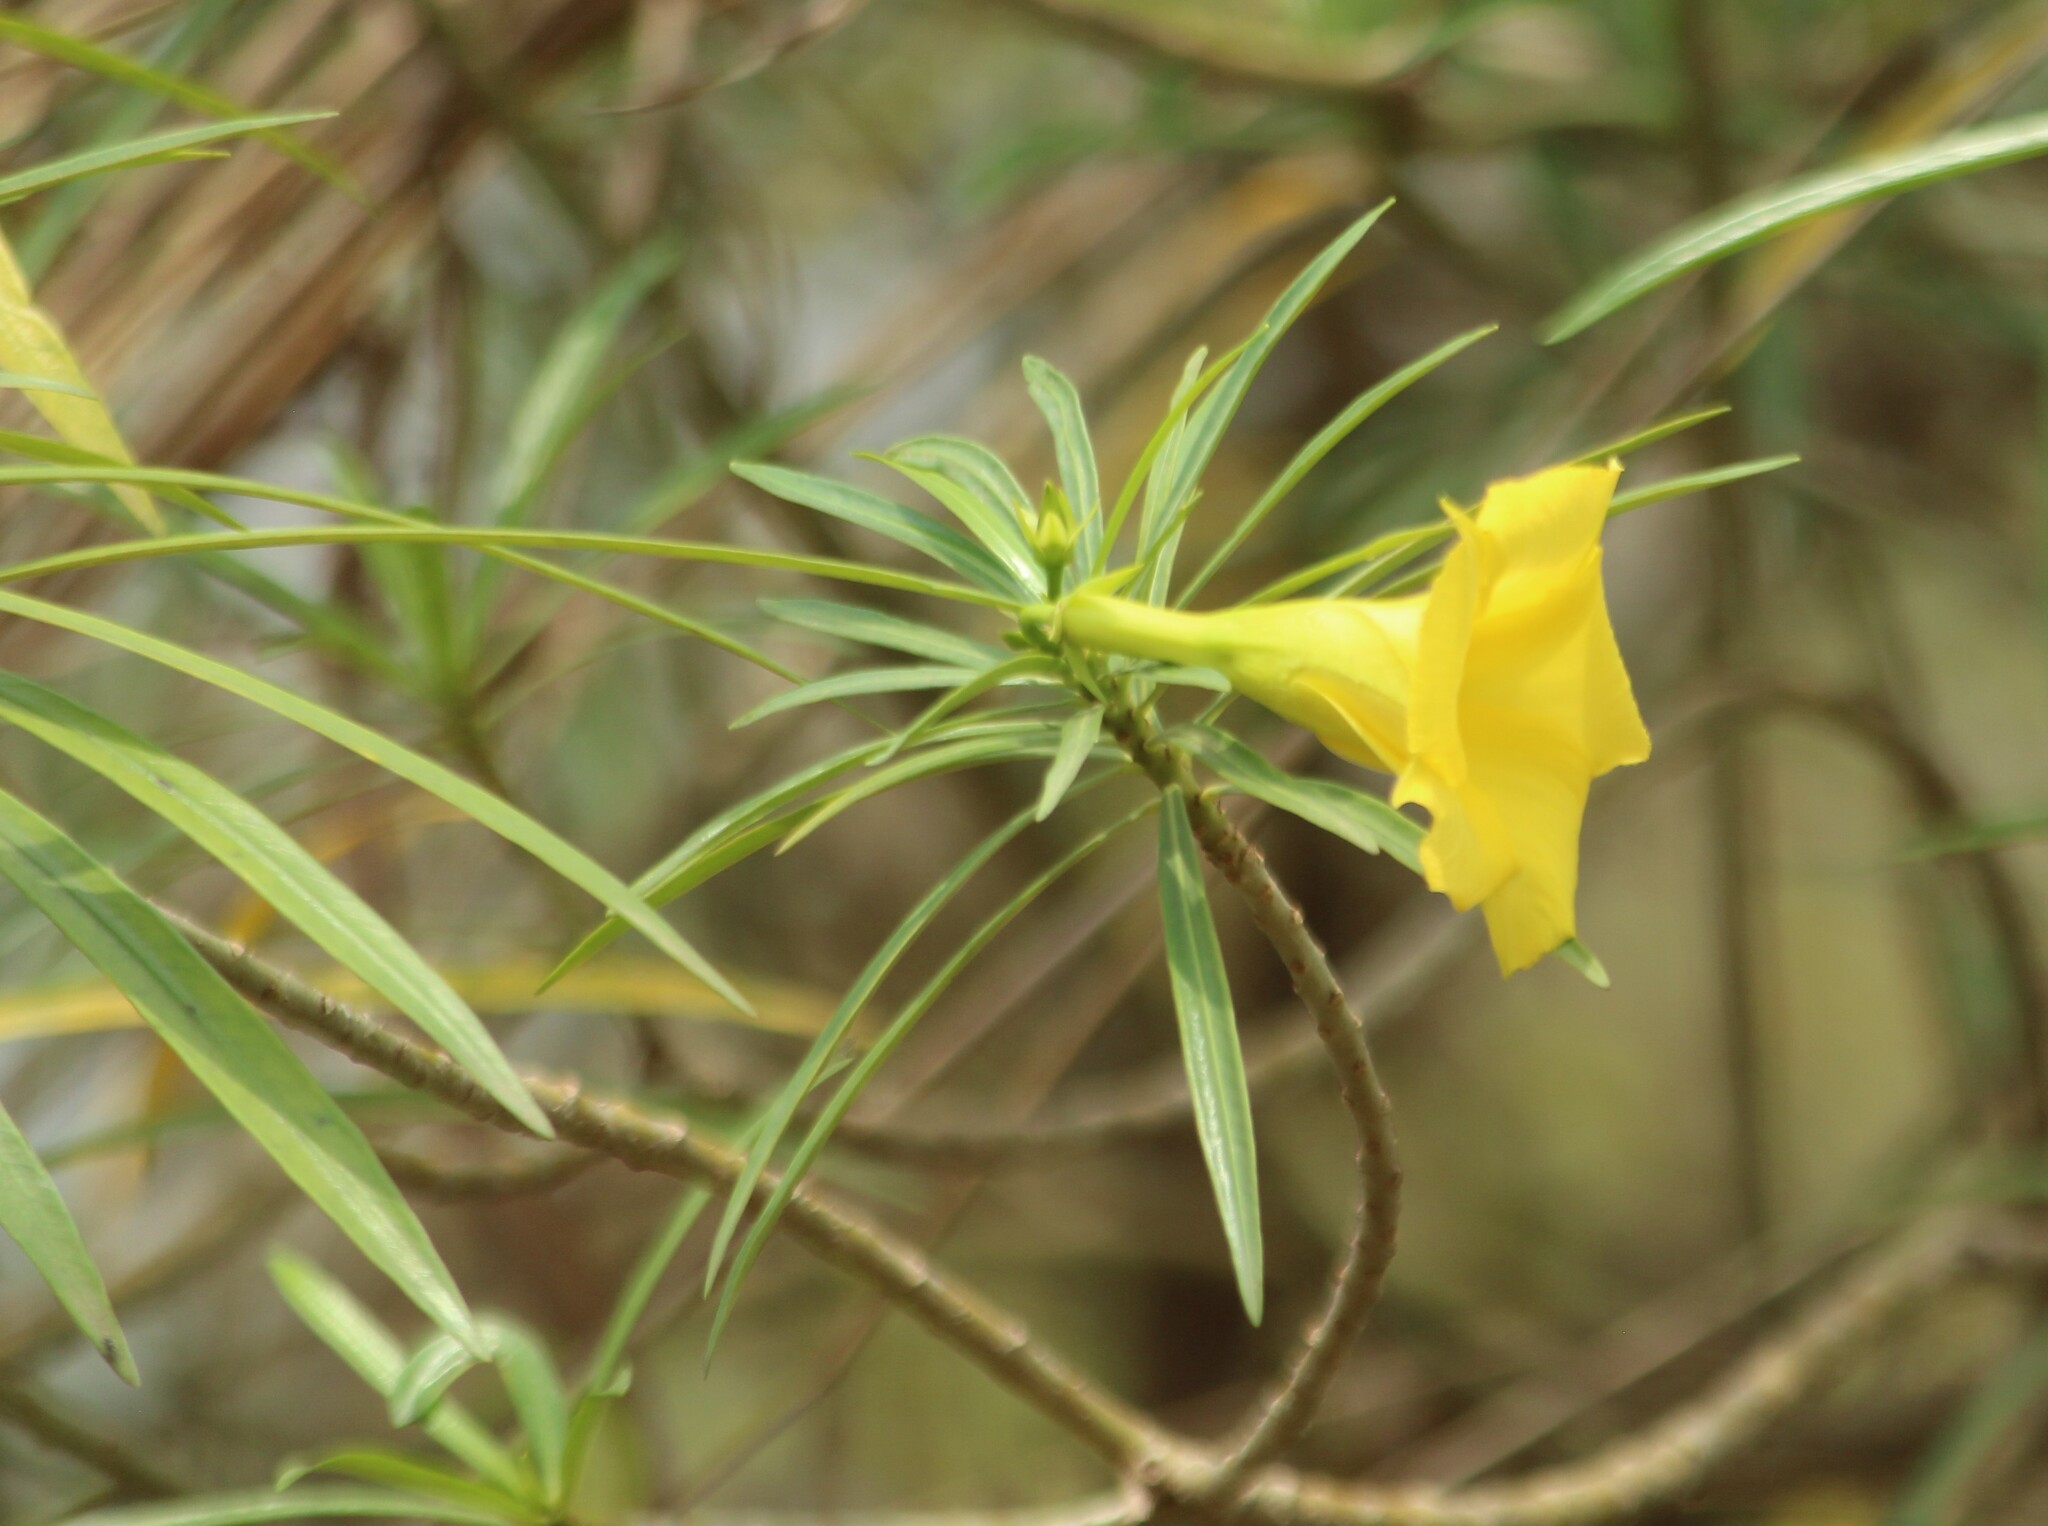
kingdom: Plantae
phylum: Tracheophyta
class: Magnoliopsida
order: Gentianales
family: Apocynaceae
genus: Cascabela
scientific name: Cascabela thevetia
